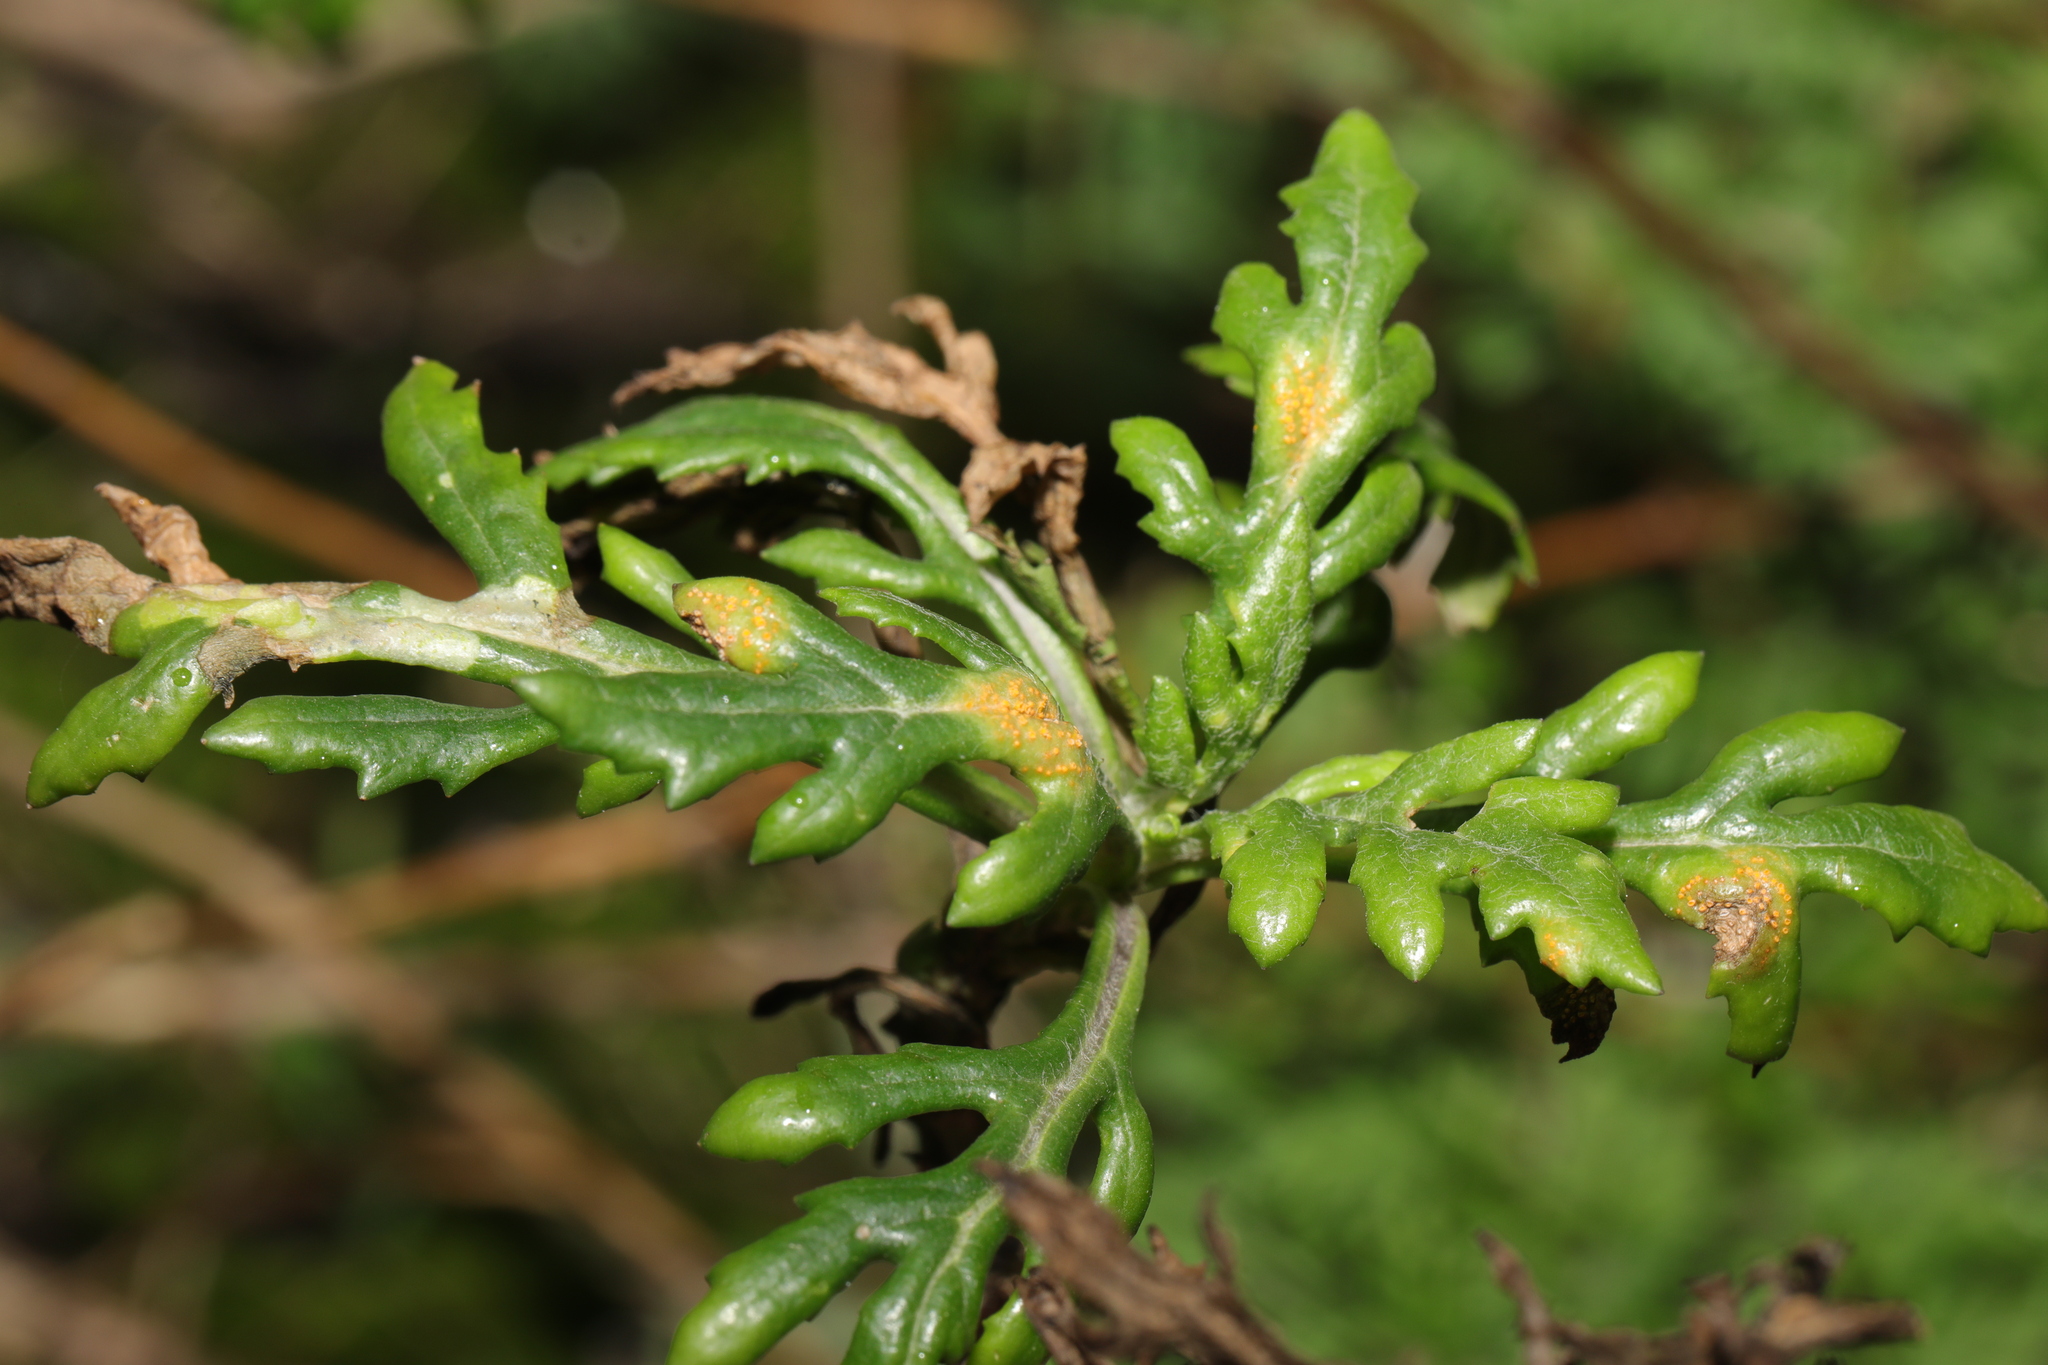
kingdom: Plantae
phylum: Tracheophyta
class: Magnoliopsida
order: Asterales
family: Asteraceae
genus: Senecio
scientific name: Senecio vulgaris
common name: Old-man-in-the-spring
